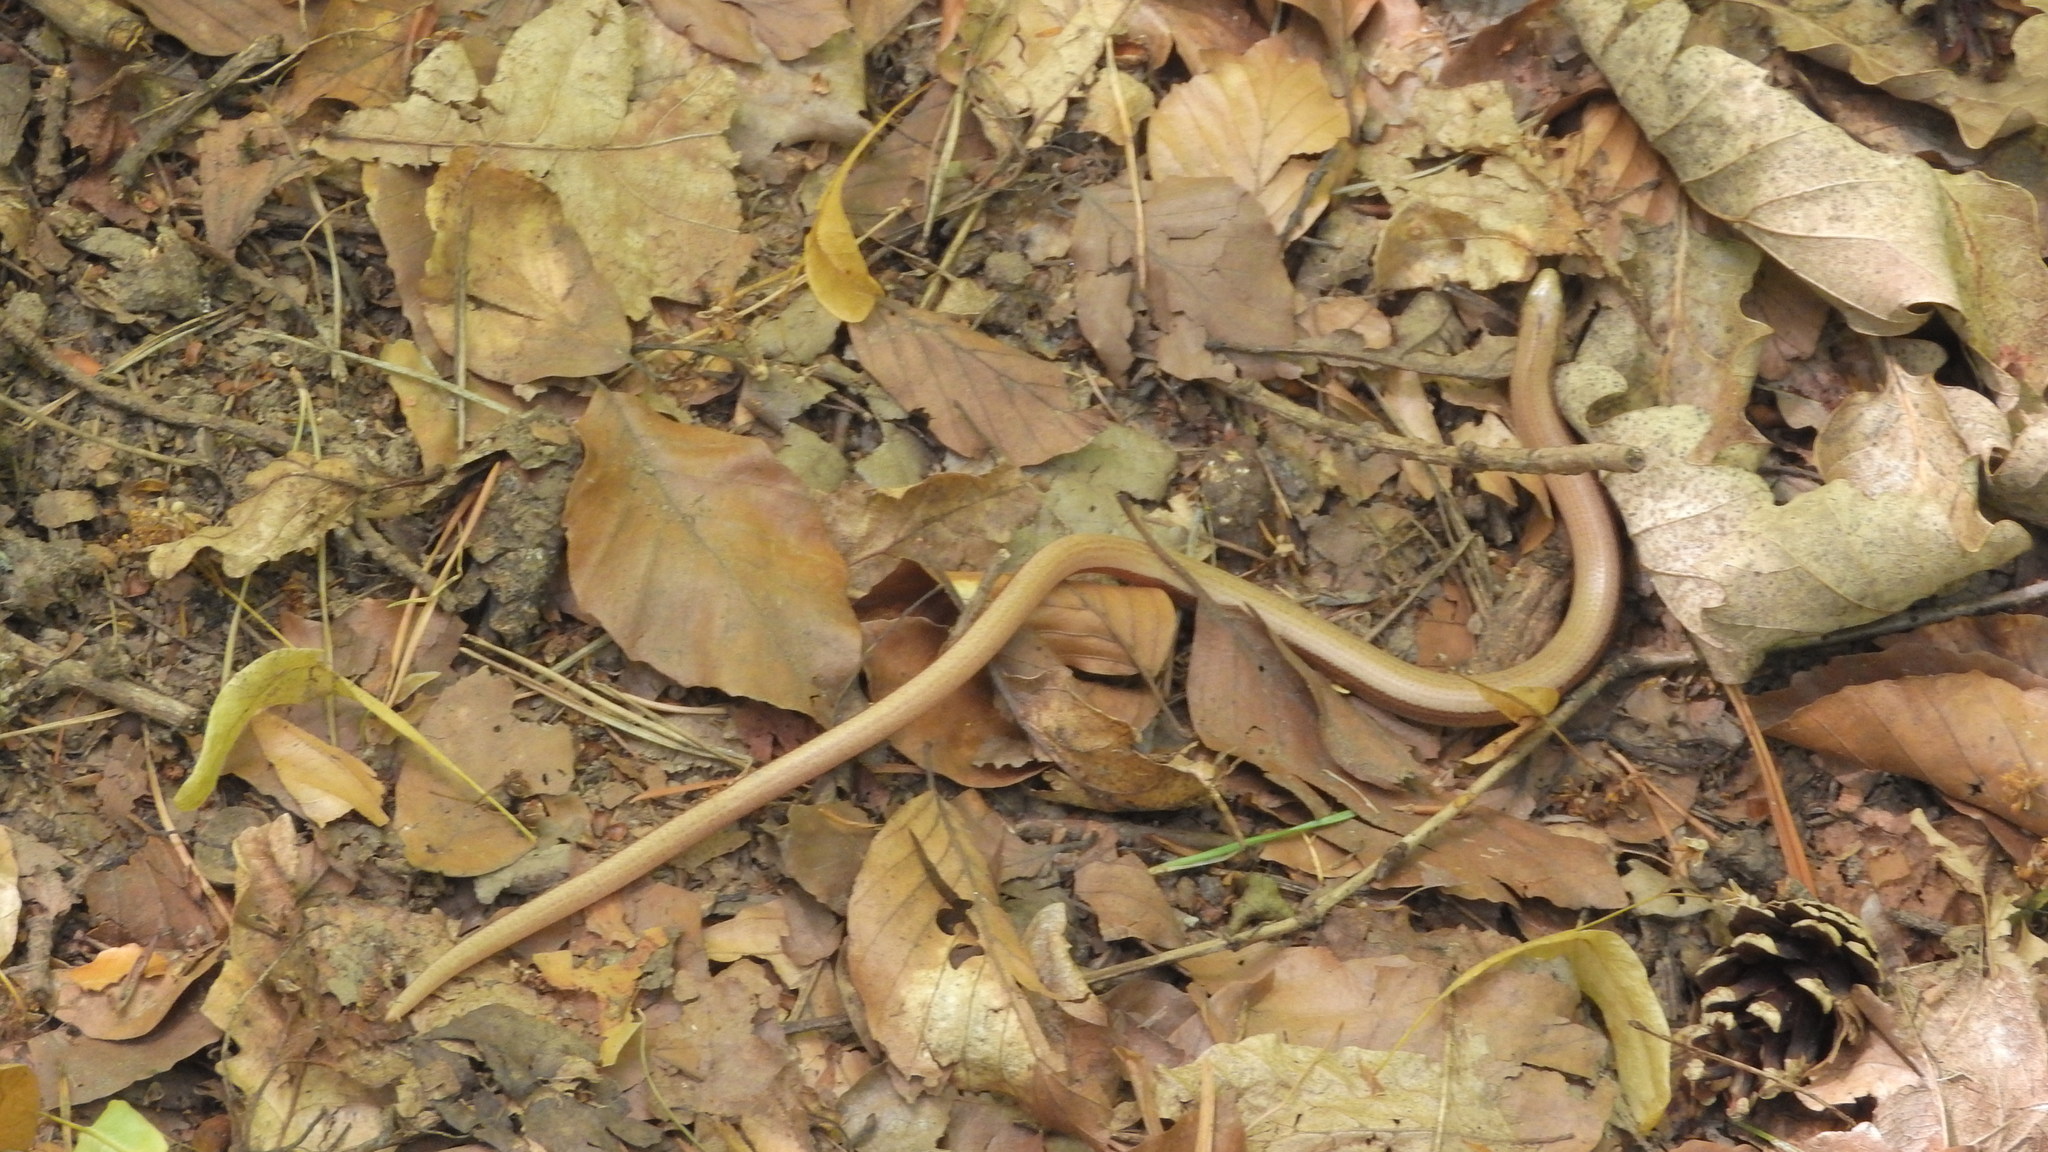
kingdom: Animalia
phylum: Chordata
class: Squamata
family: Anguidae
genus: Anguis
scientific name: Anguis fragilis
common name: Slow worm
